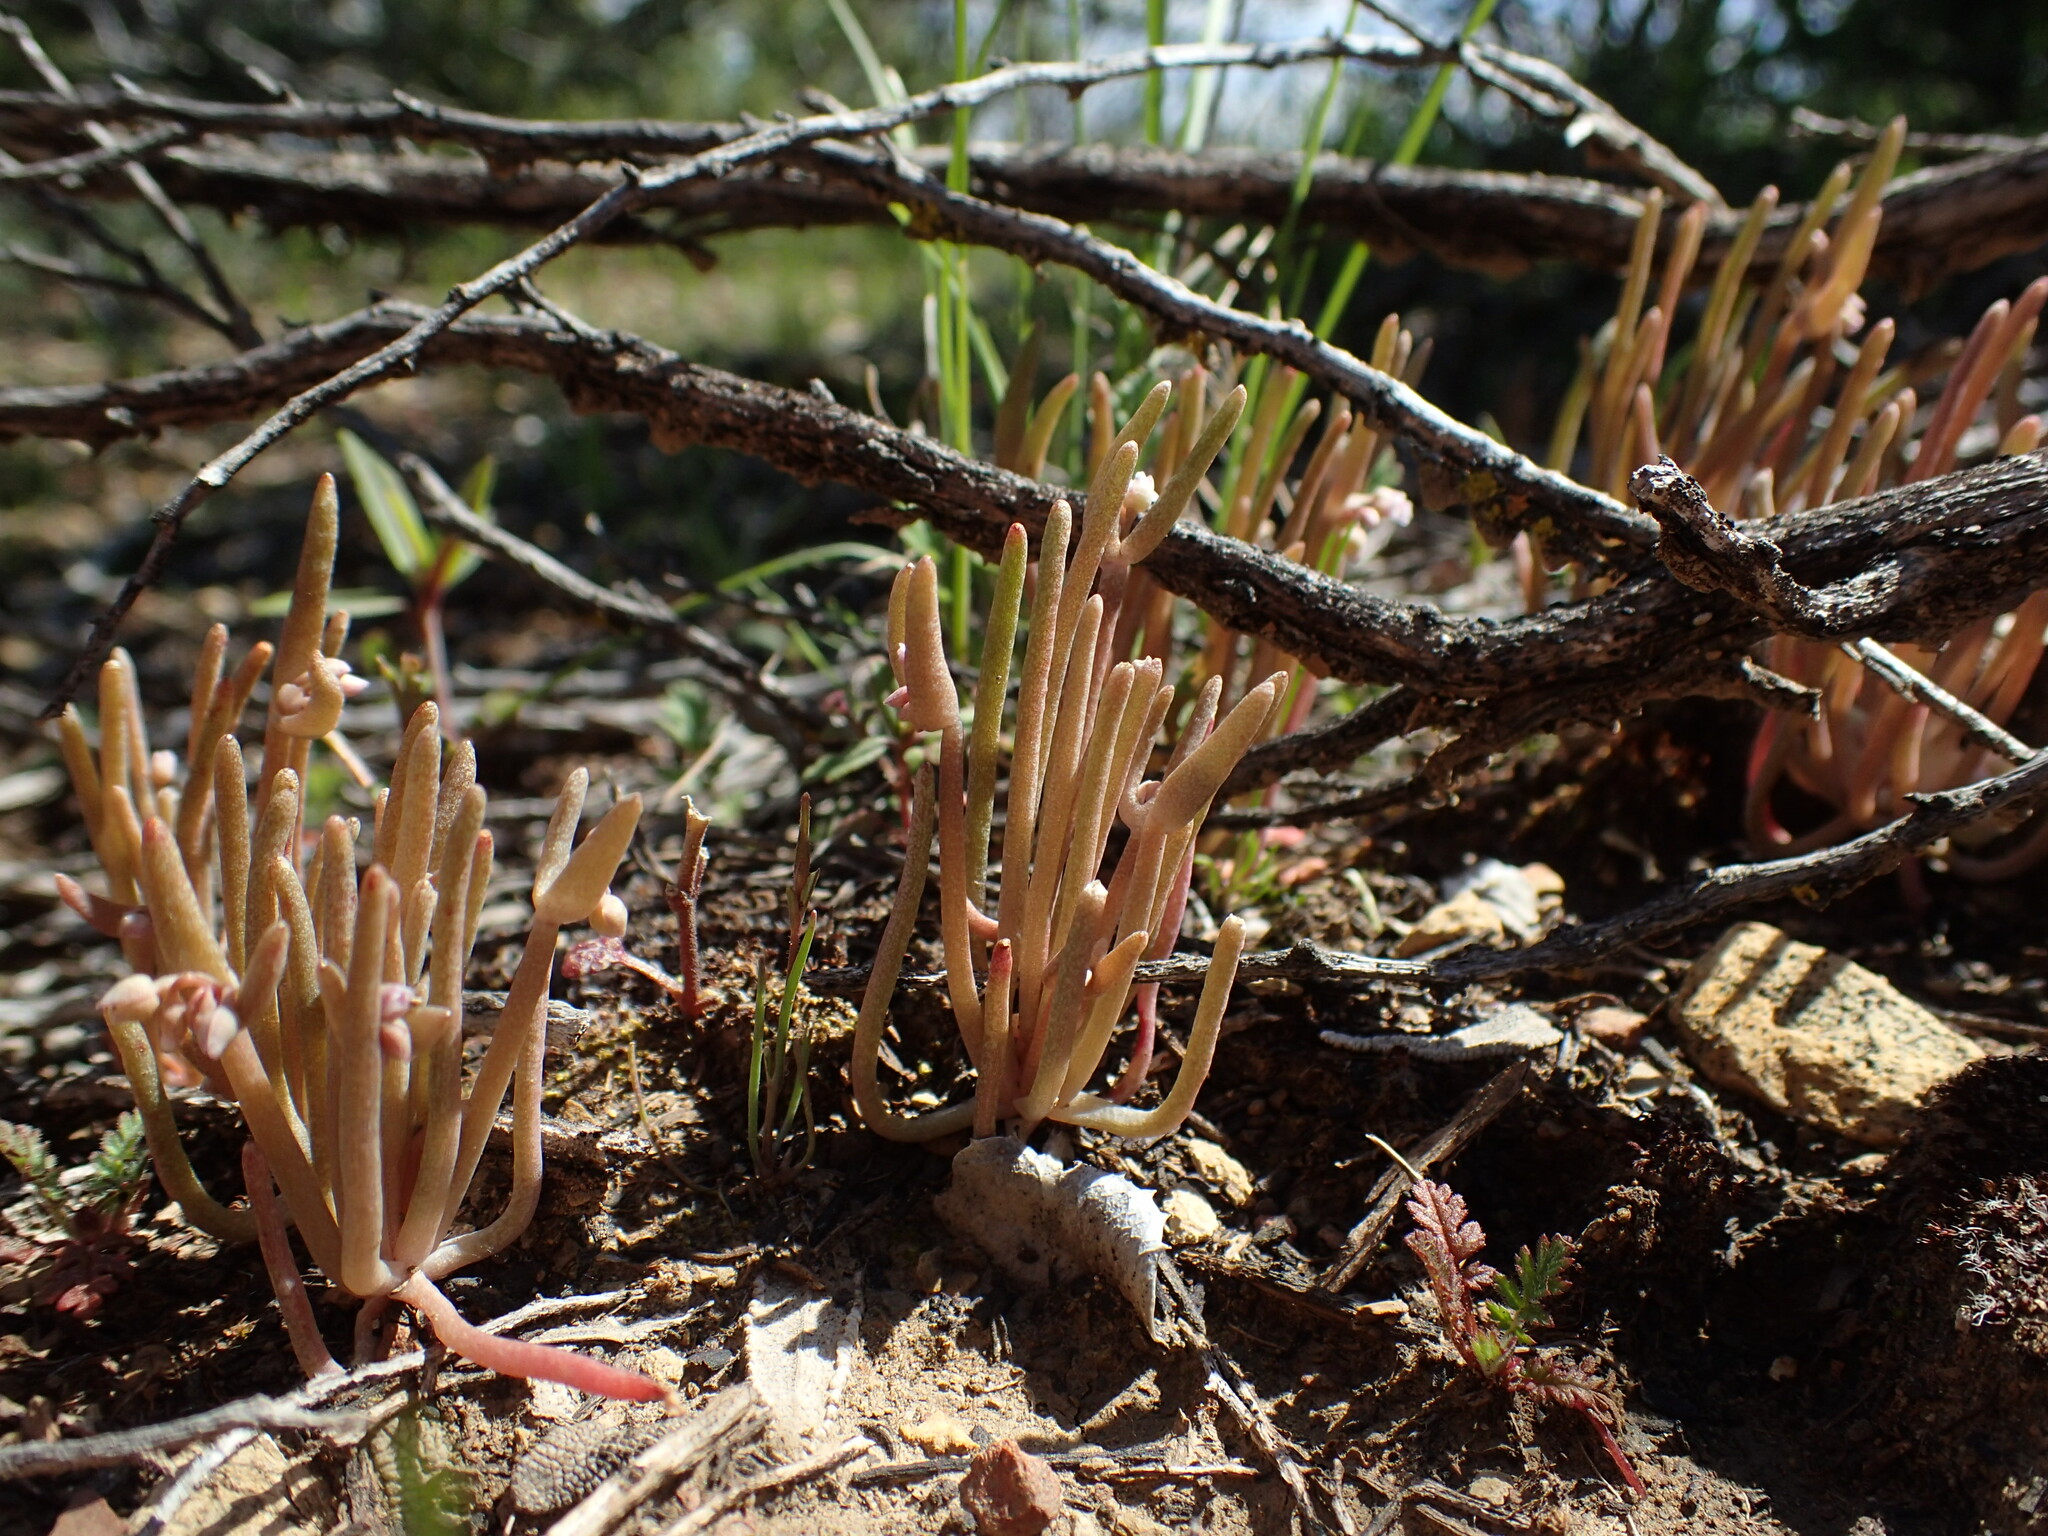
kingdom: Plantae
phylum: Tracheophyta
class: Magnoliopsida
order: Caryophyllales
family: Montiaceae
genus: Claytonia
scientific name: Claytonia exigua
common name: Pale spring beauty
